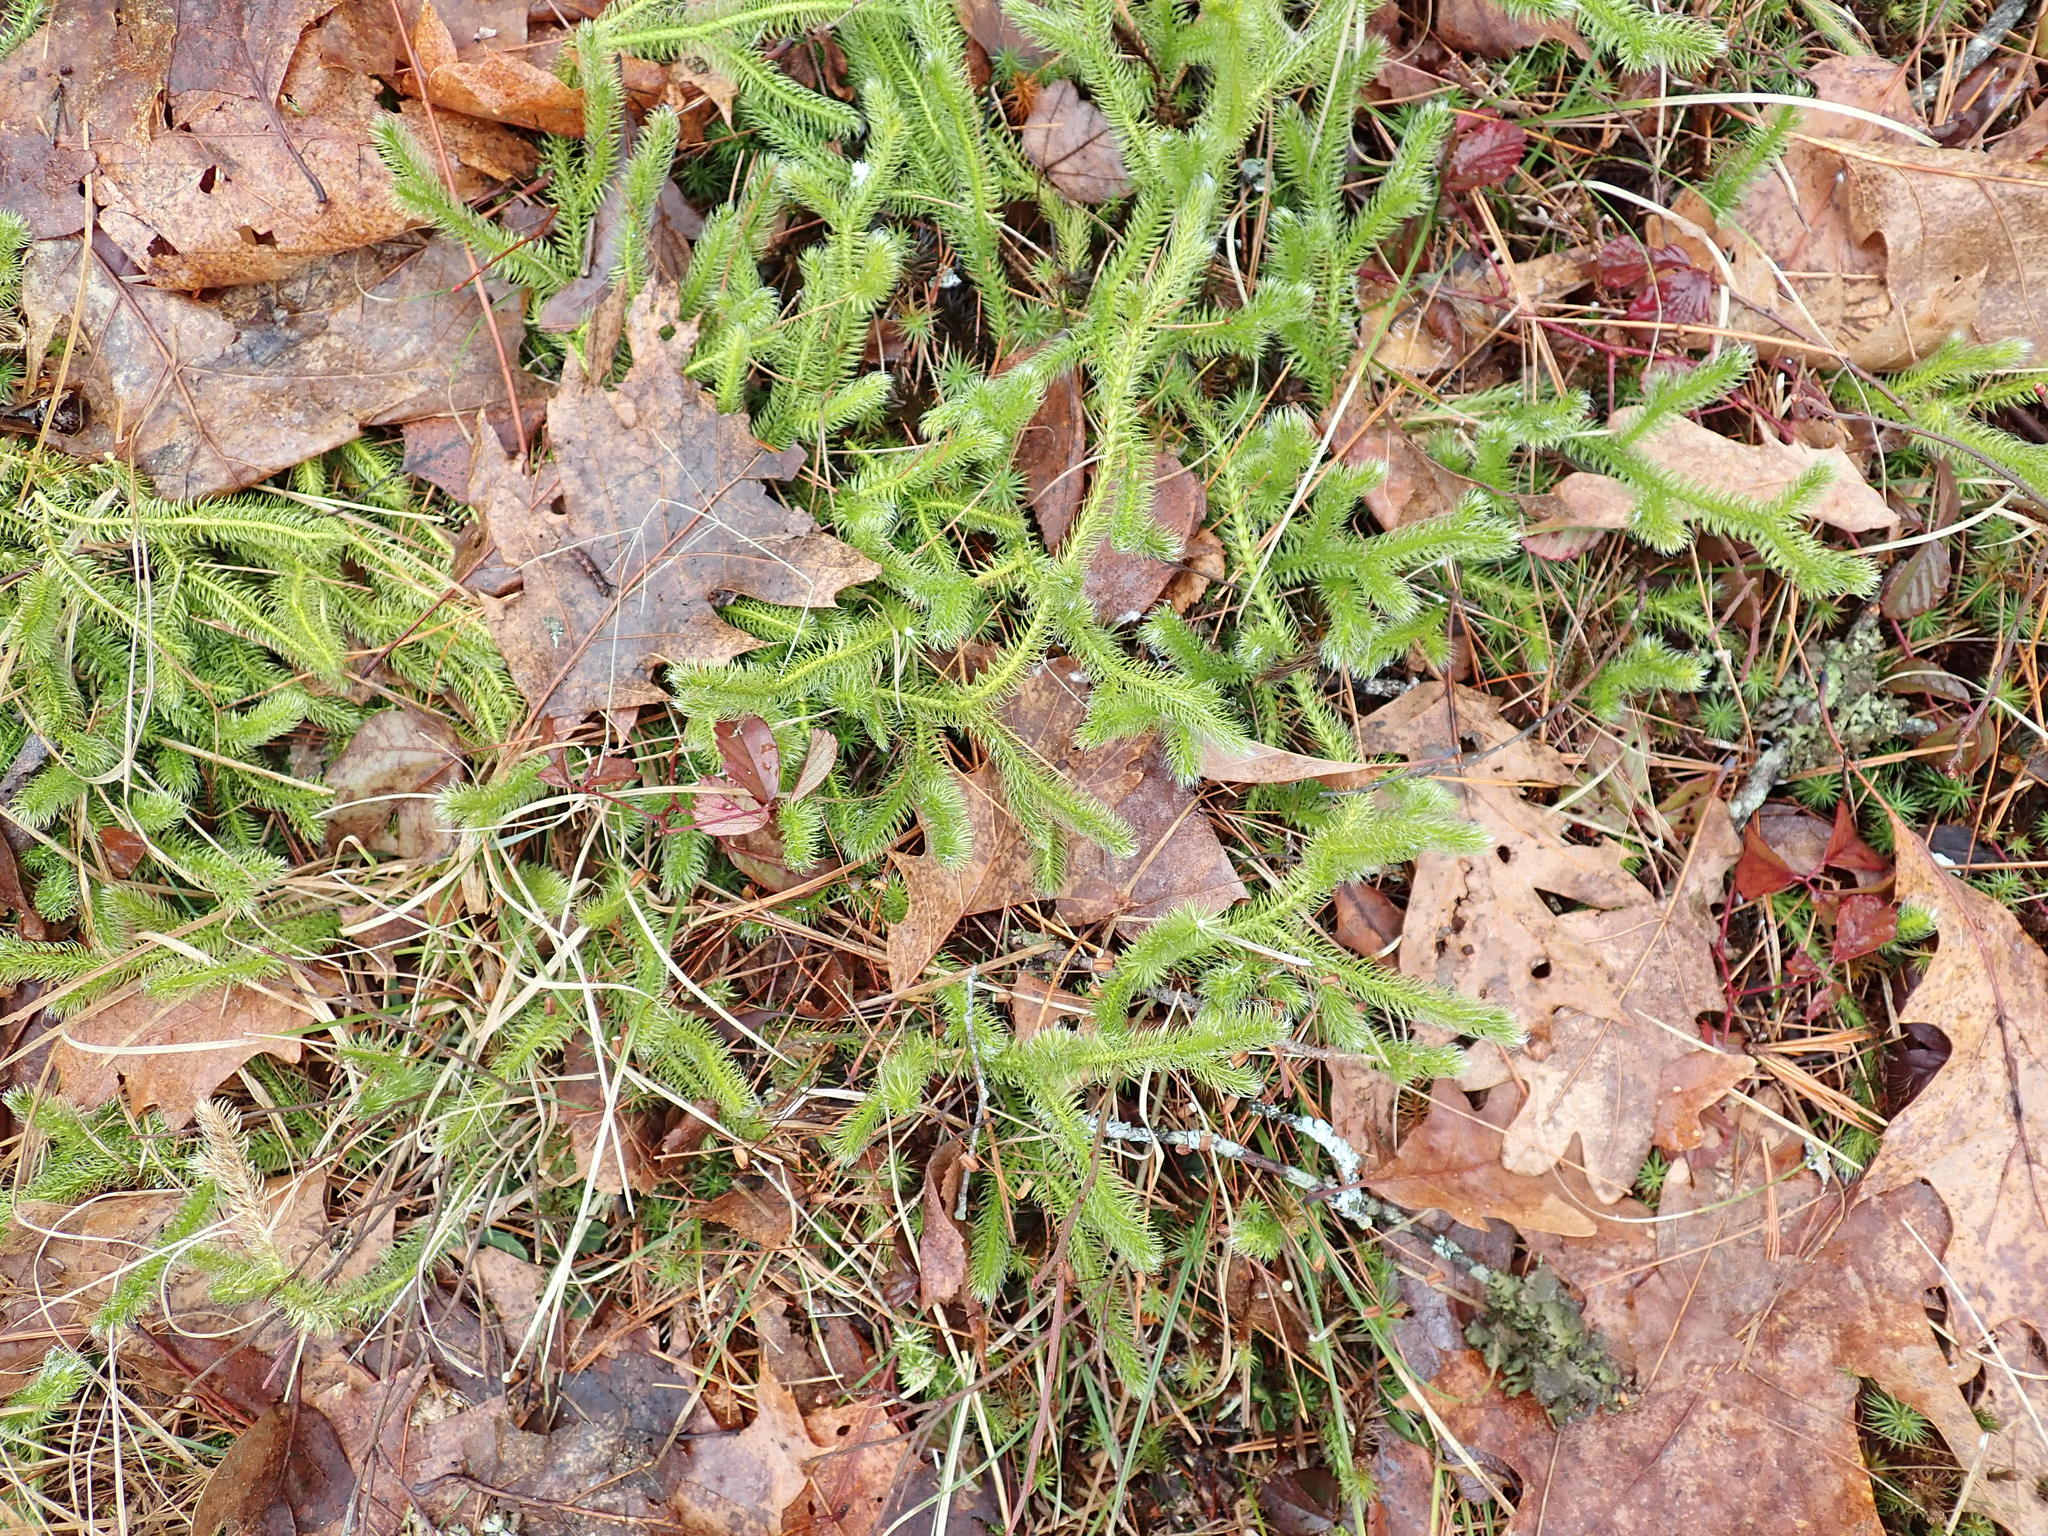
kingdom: Plantae
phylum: Tracheophyta
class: Lycopodiopsida
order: Lycopodiales
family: Lycopodiaceae
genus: Lycopodium
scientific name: Lycopodium clavatum
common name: Stag's-horn clubmoss
